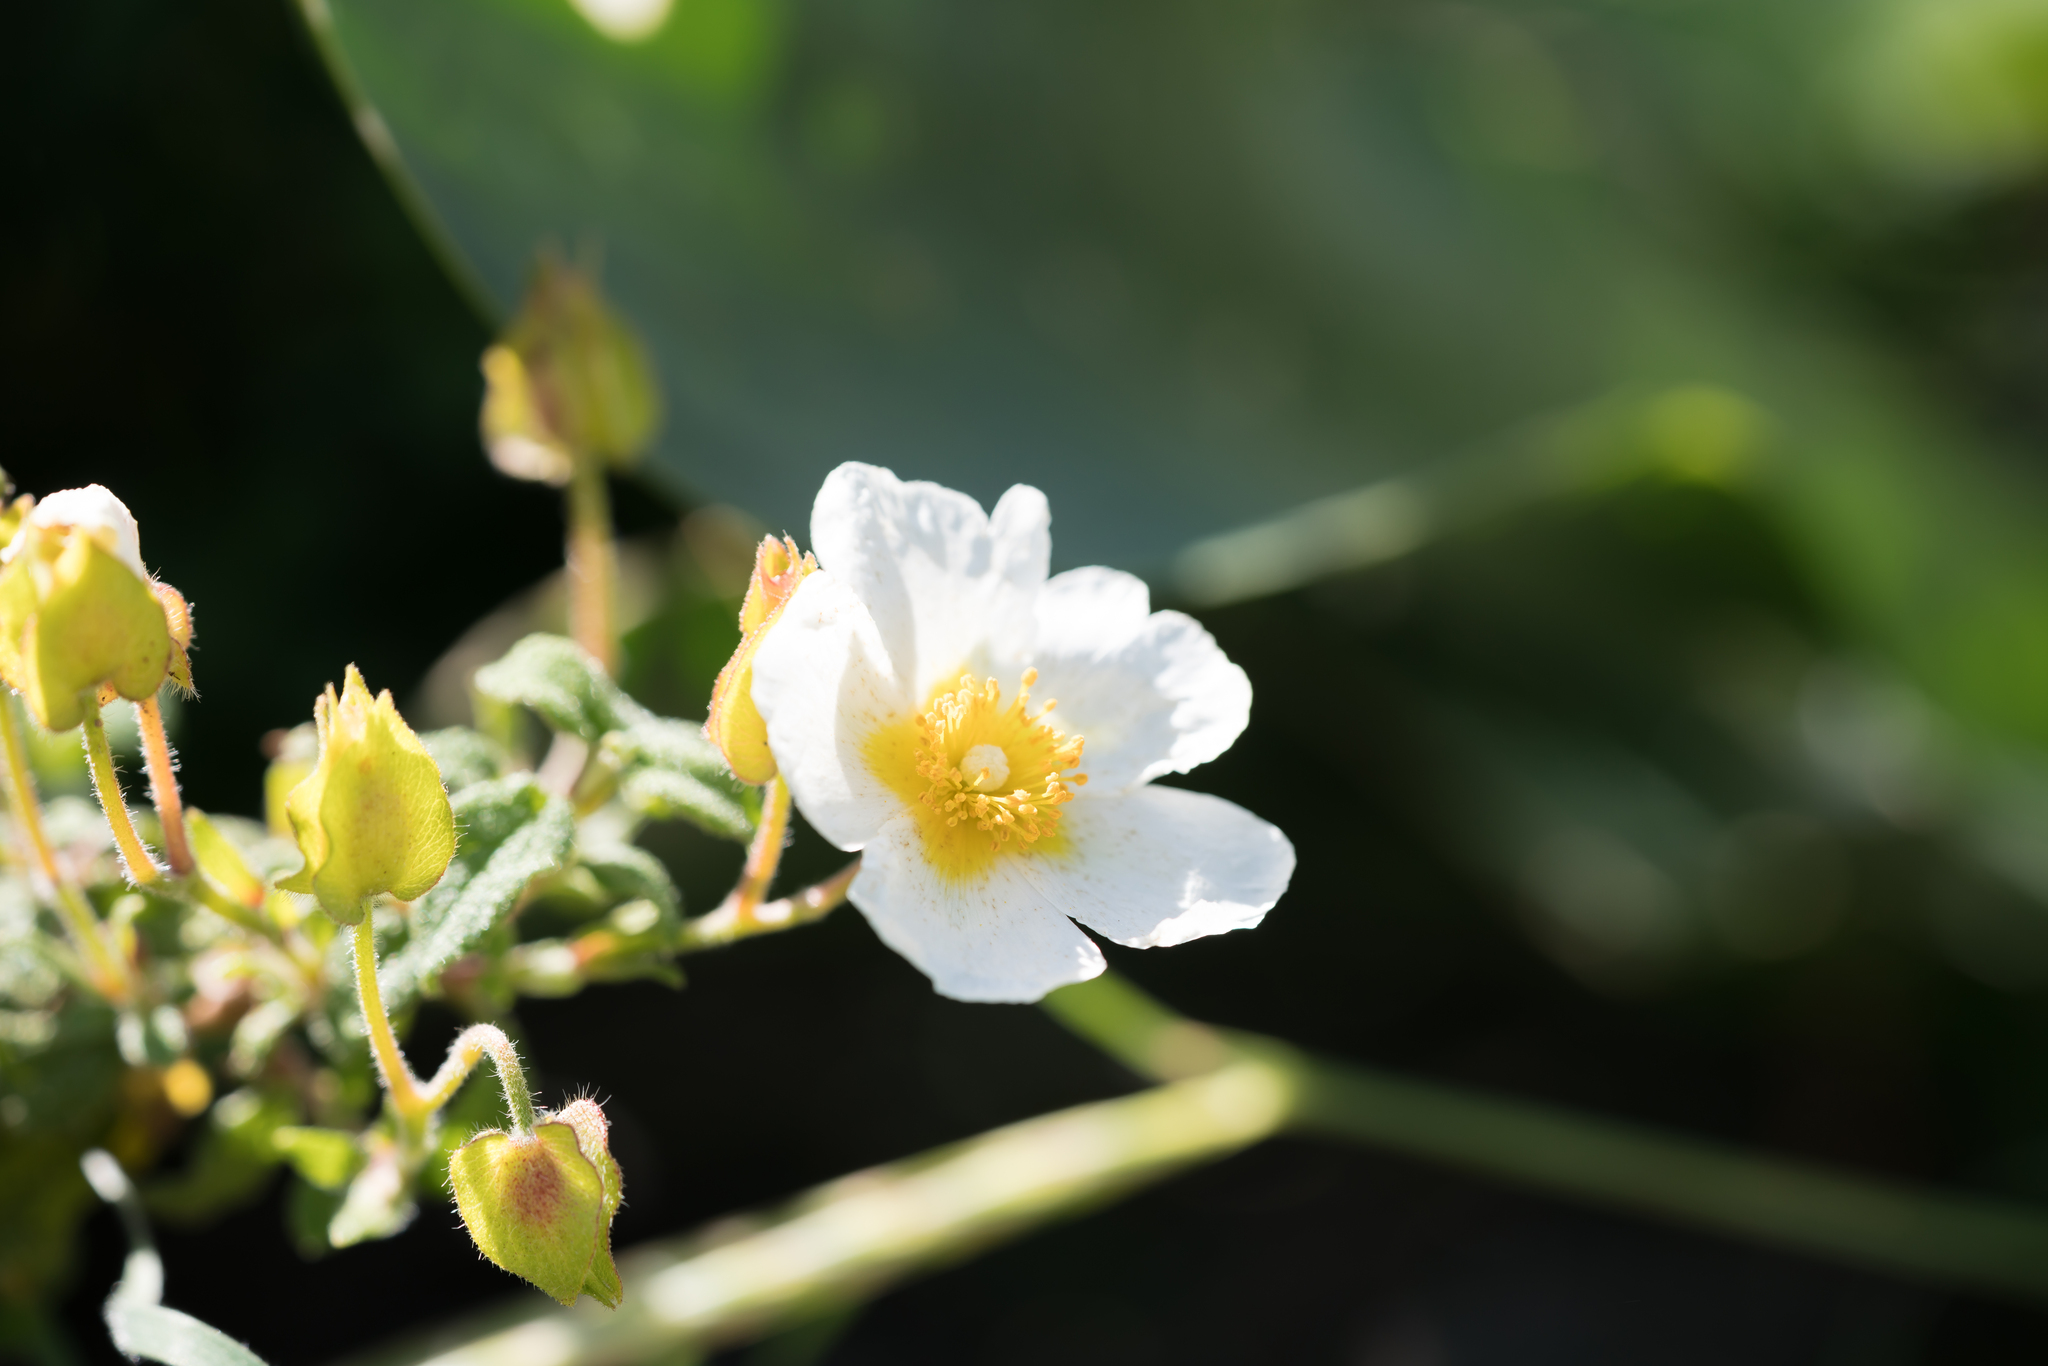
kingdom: Plantae
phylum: Tracheophyta
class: Magnoliopsida
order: Malvales
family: Cistaceae
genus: Cistus
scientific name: Cistus salviifolius
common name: Salvia cistus
